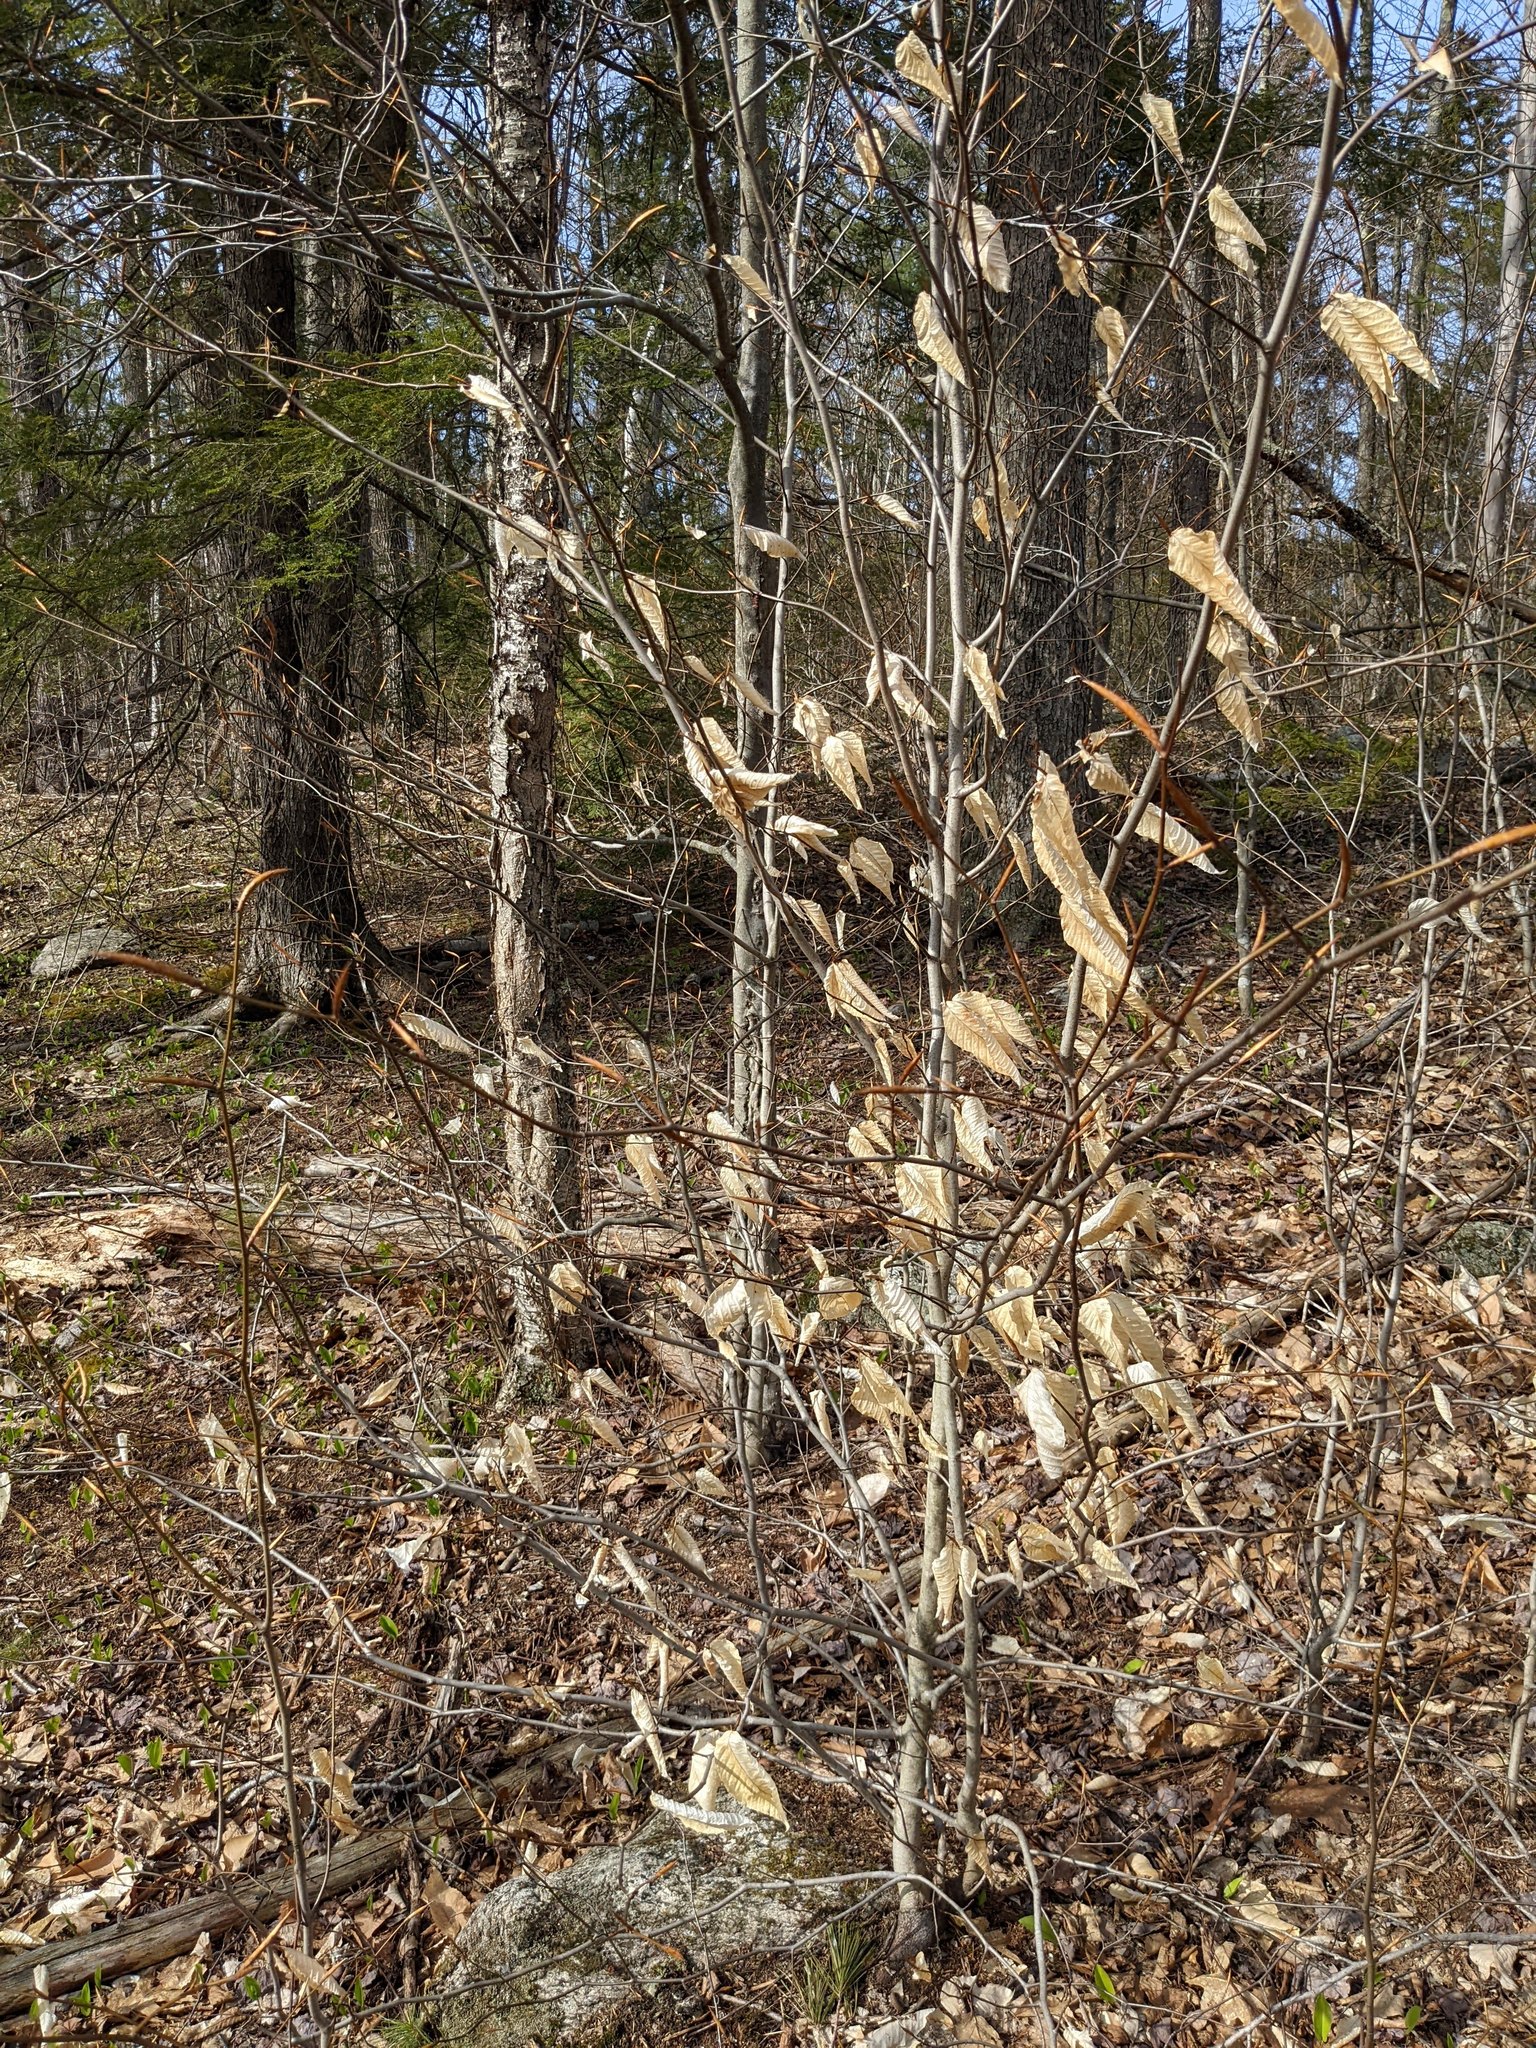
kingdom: Plantae
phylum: Tracheophyta
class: Magnoliopsida
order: Fagales
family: Fagaceae
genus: Fagus
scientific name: Fagus grandifolia
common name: American beech
